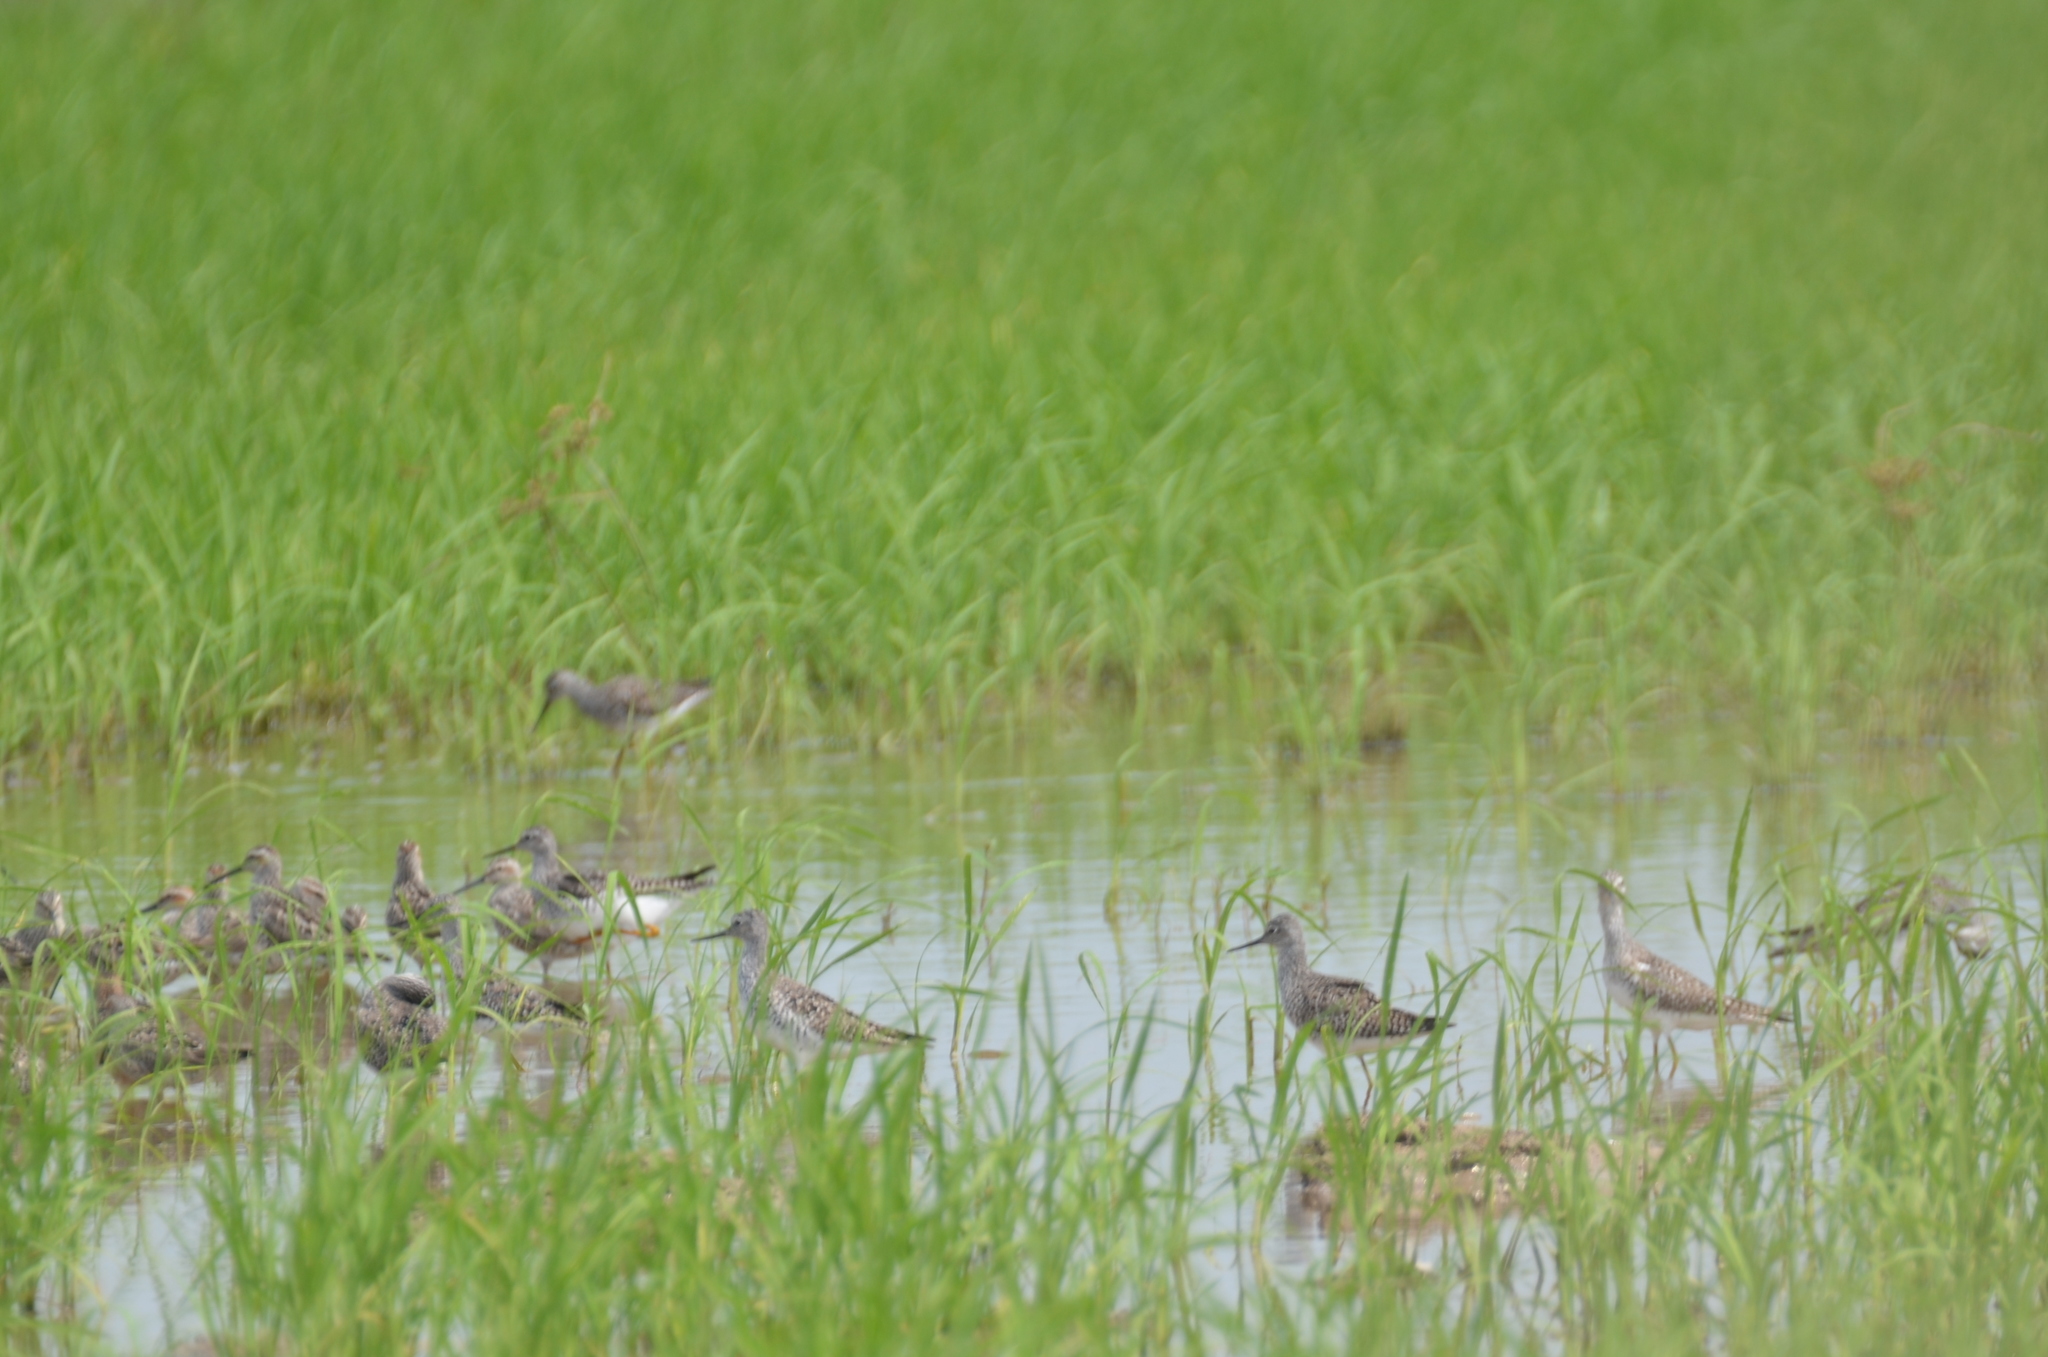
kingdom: Animalia
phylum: Chordata
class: Aves
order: Charadriiformes
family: Scolopacidae
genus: Tringa
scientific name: Tringa flavipes
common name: Lesser yellowlegs
